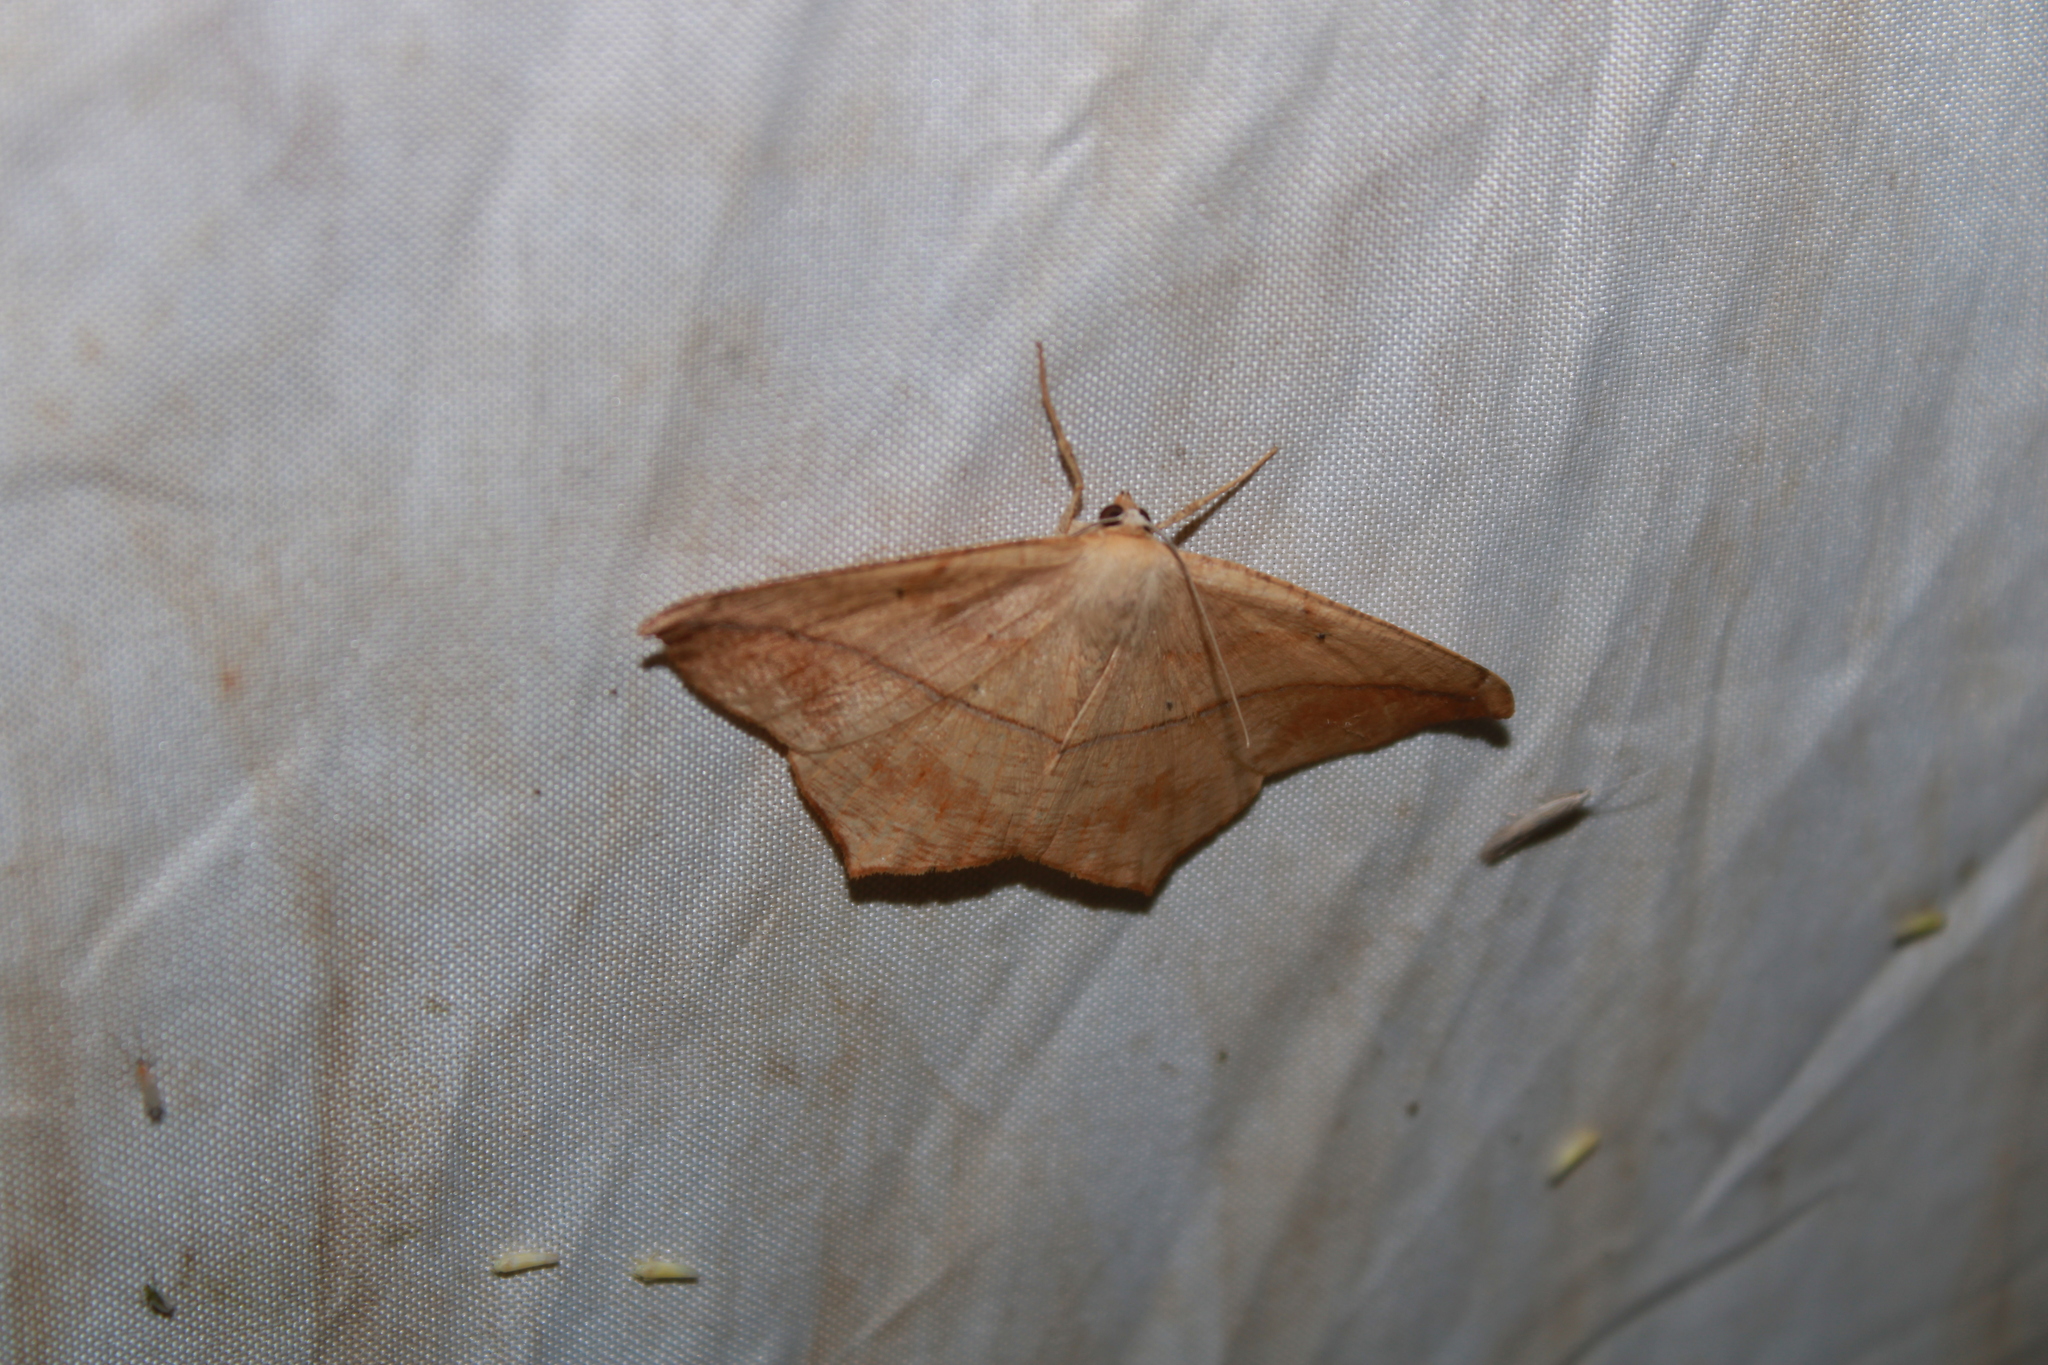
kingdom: Animalia
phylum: Arthropoda
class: Insecta
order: Lepidoptera
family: Geometridae
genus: Prochoerodes
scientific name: Prochoerodes lineola
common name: Large maple spanworm
